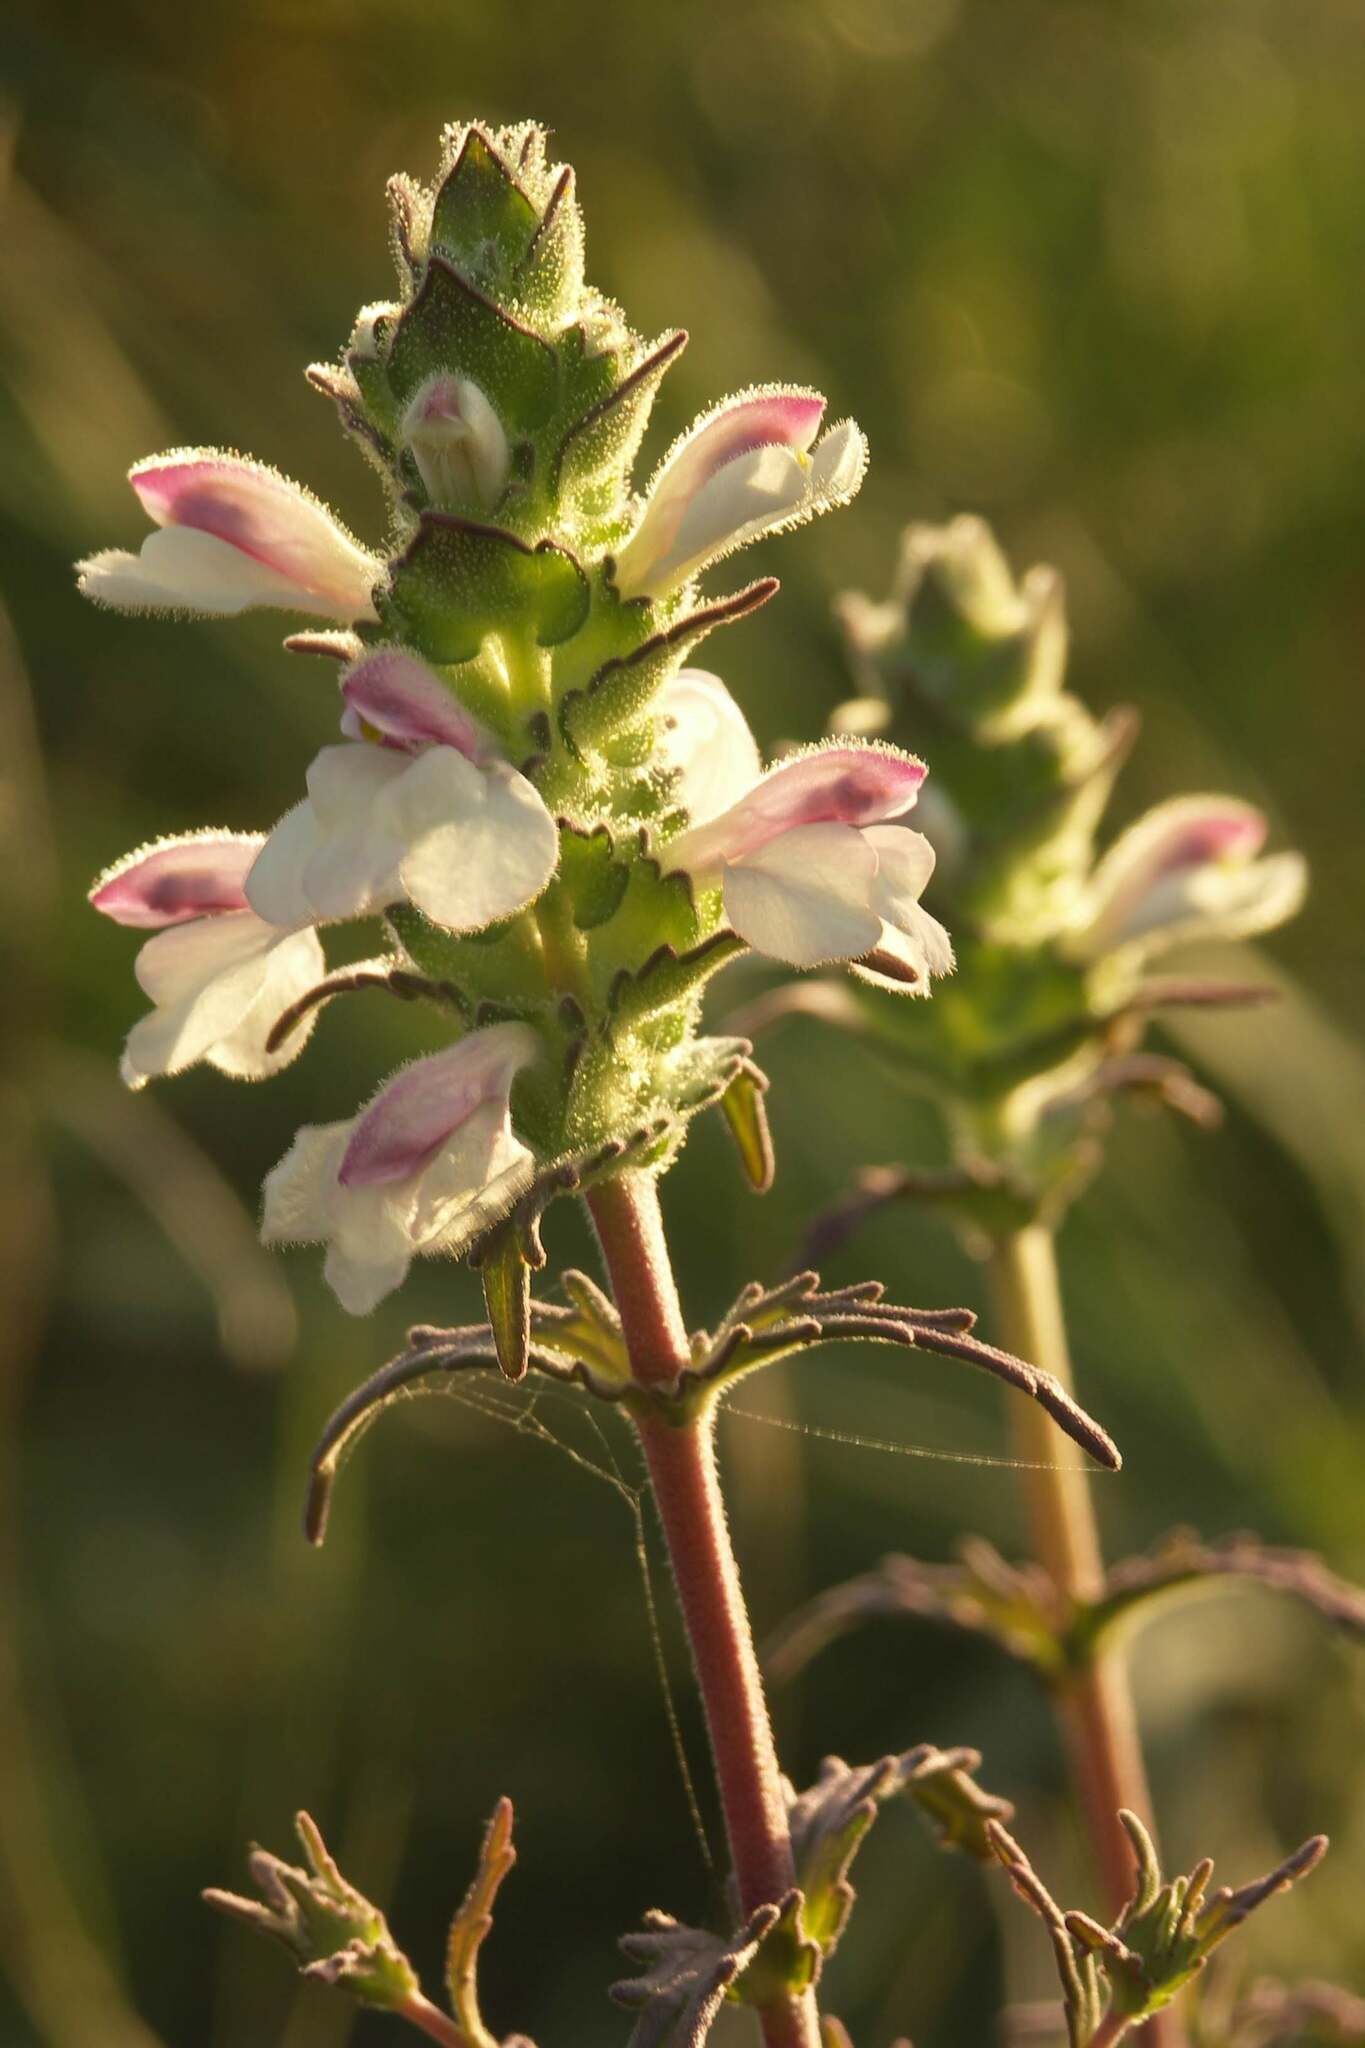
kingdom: Plantae
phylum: Tracheophyta
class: Magnoliopsida
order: Lamiales
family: Orobanchaceae
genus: Bellardia
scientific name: Bellardia trixago
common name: Mediterranean lineseed
